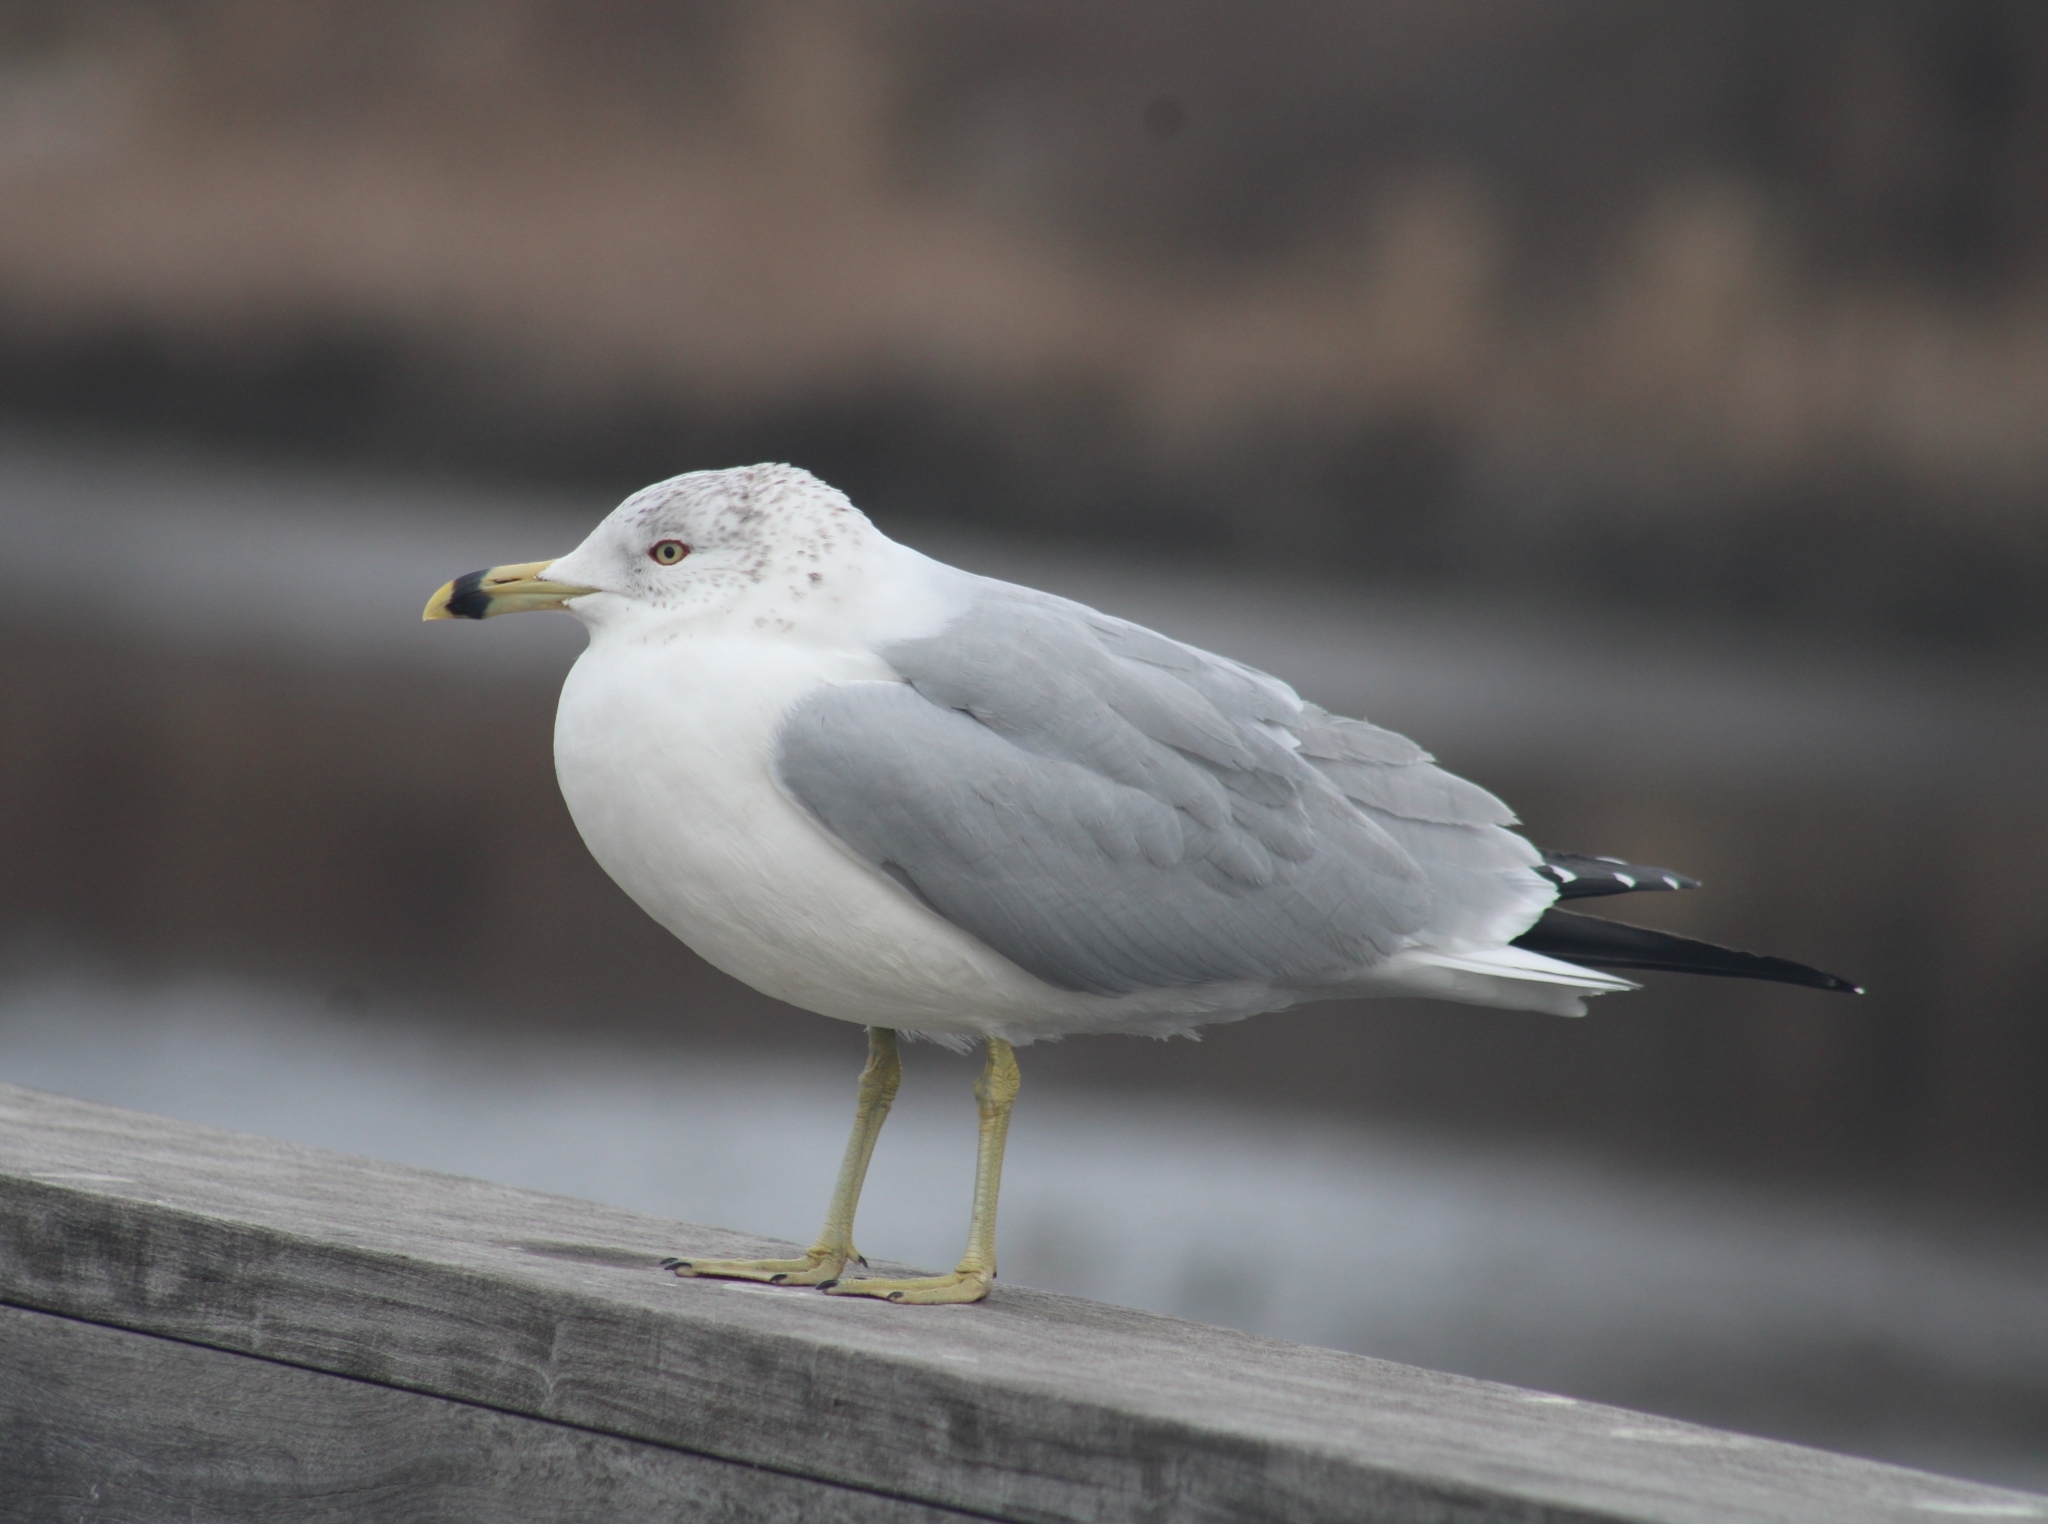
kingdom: Animalia
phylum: Chordata
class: Aves
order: Charadriiformes
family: Laridae
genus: Larus
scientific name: Larus delawarensis
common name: Ring-billed gull
